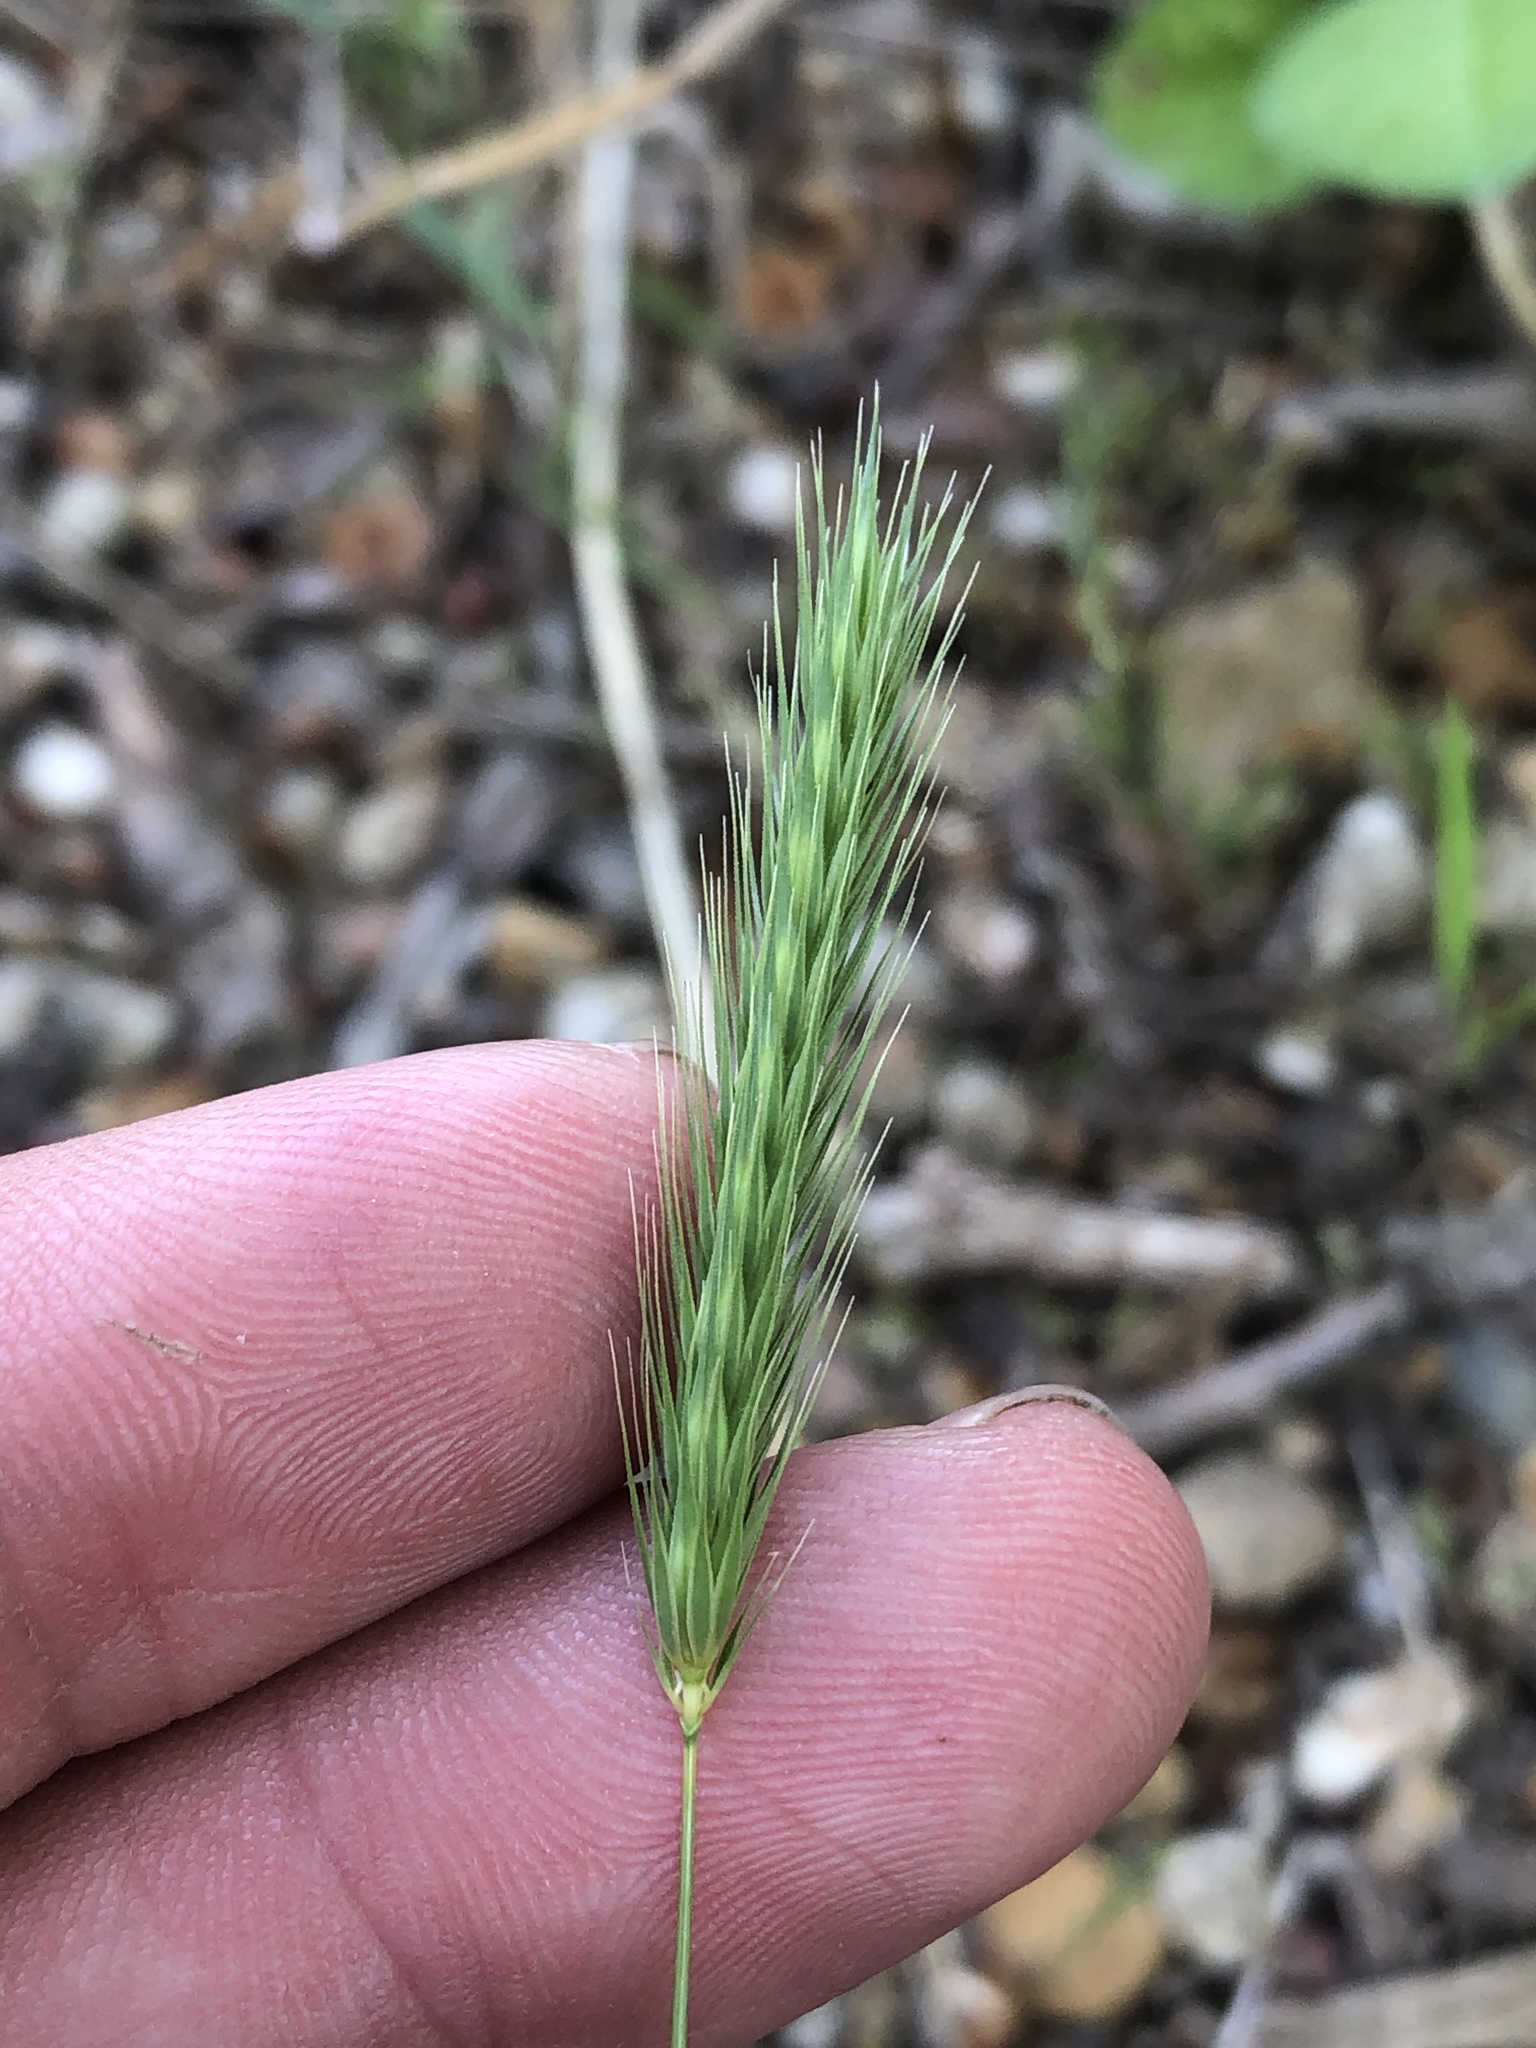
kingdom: Plantae
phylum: Tracheophyta
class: Liliopsida
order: Poales
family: Poaceae
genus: Hordeum
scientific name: Hordeum pusillum
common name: Little barley
